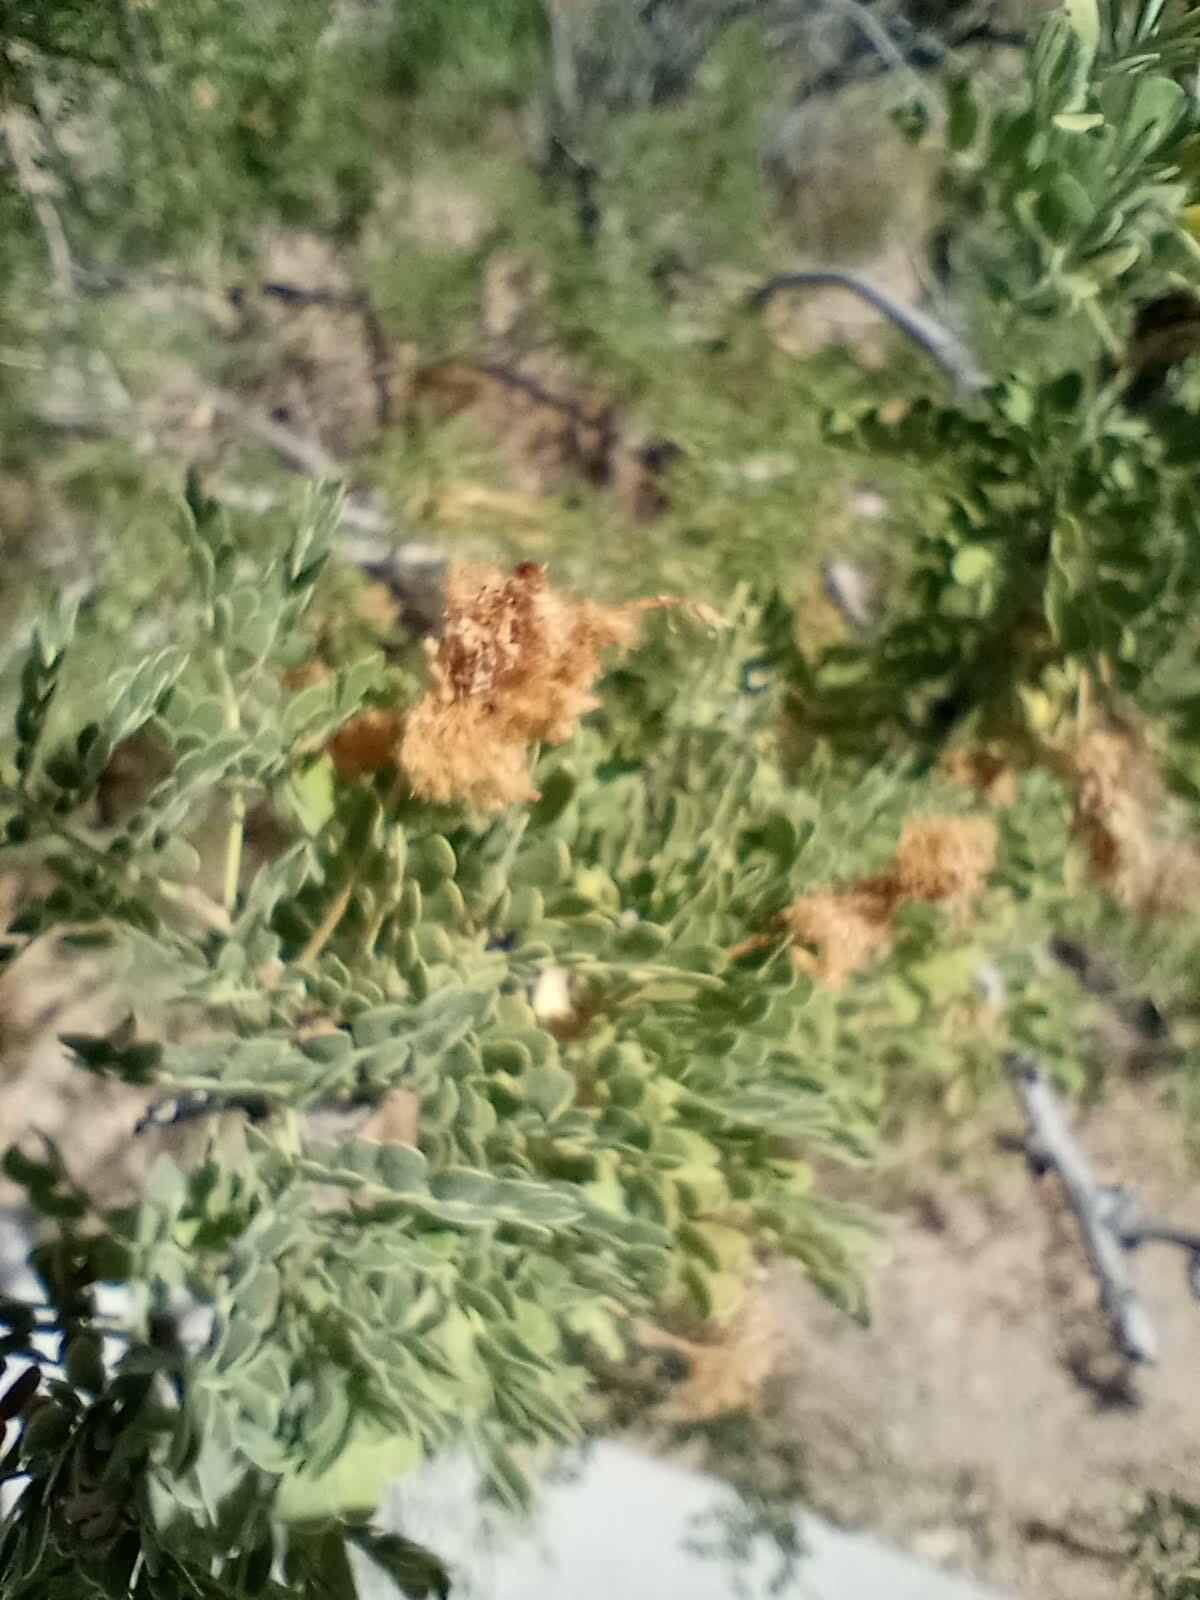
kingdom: Plantae
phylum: Tracheophyta
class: Magnoliopsida
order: Fabales
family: Fabaceae
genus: Olneya
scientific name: Olneya tesota
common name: Desert ironwood
